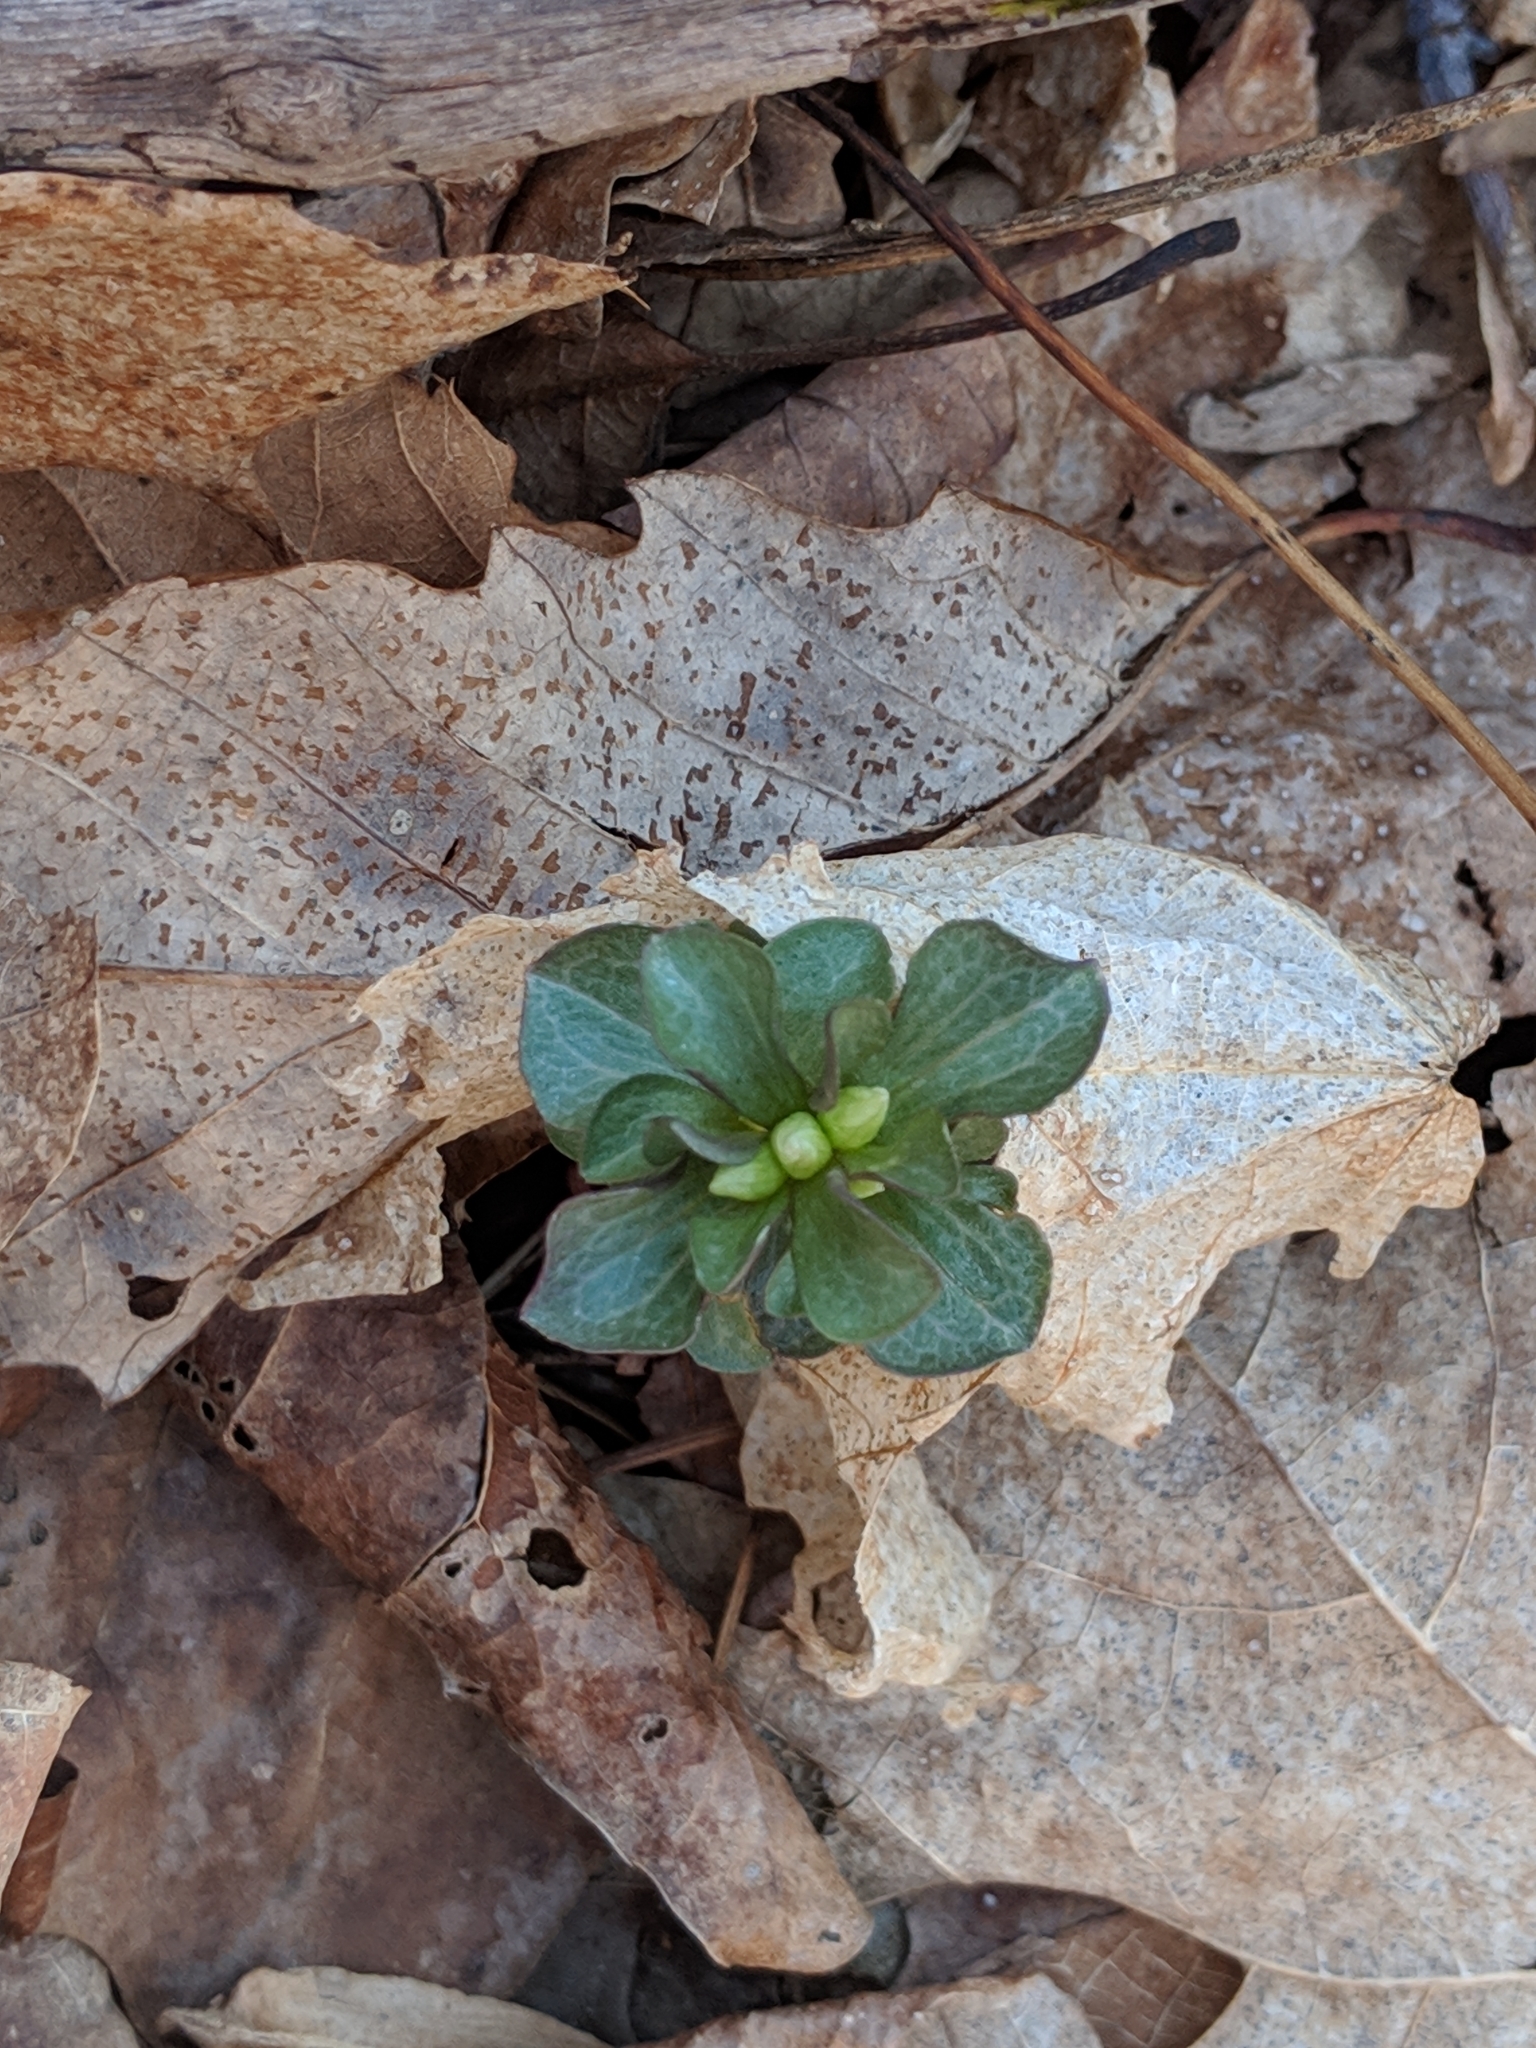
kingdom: Plantae
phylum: Tracheophyta
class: Magnoliopsida
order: Gentianales
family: Gentianaceae
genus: Obolaria
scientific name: Obolaria virginica
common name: Pennywort
